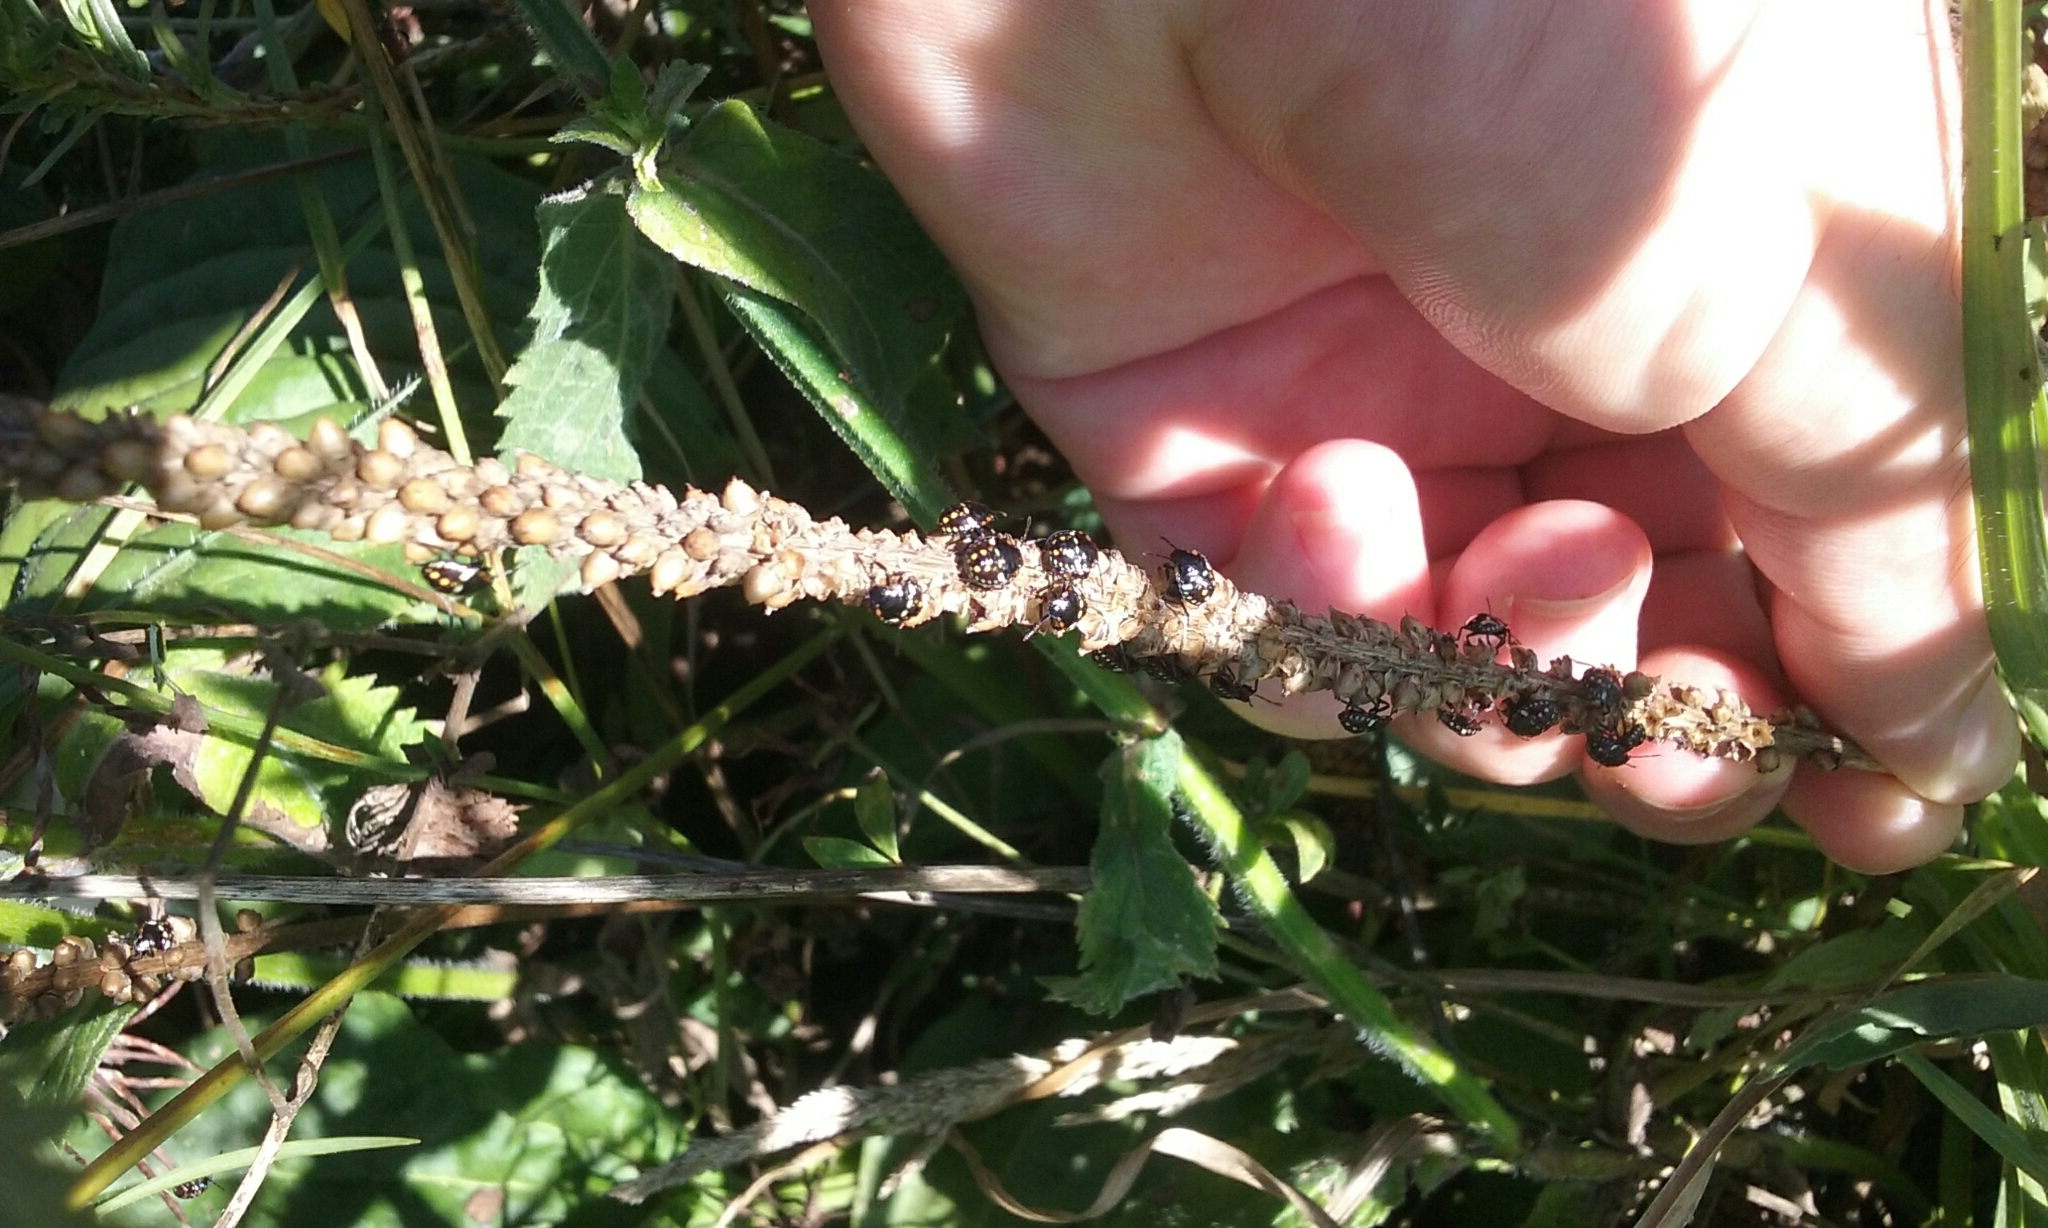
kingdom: Animalia
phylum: Arthropoda
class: Insecta
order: Hemiptera
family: Pentatomidae
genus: Nezara
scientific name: Nezara viridula
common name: Southern green stink bug
